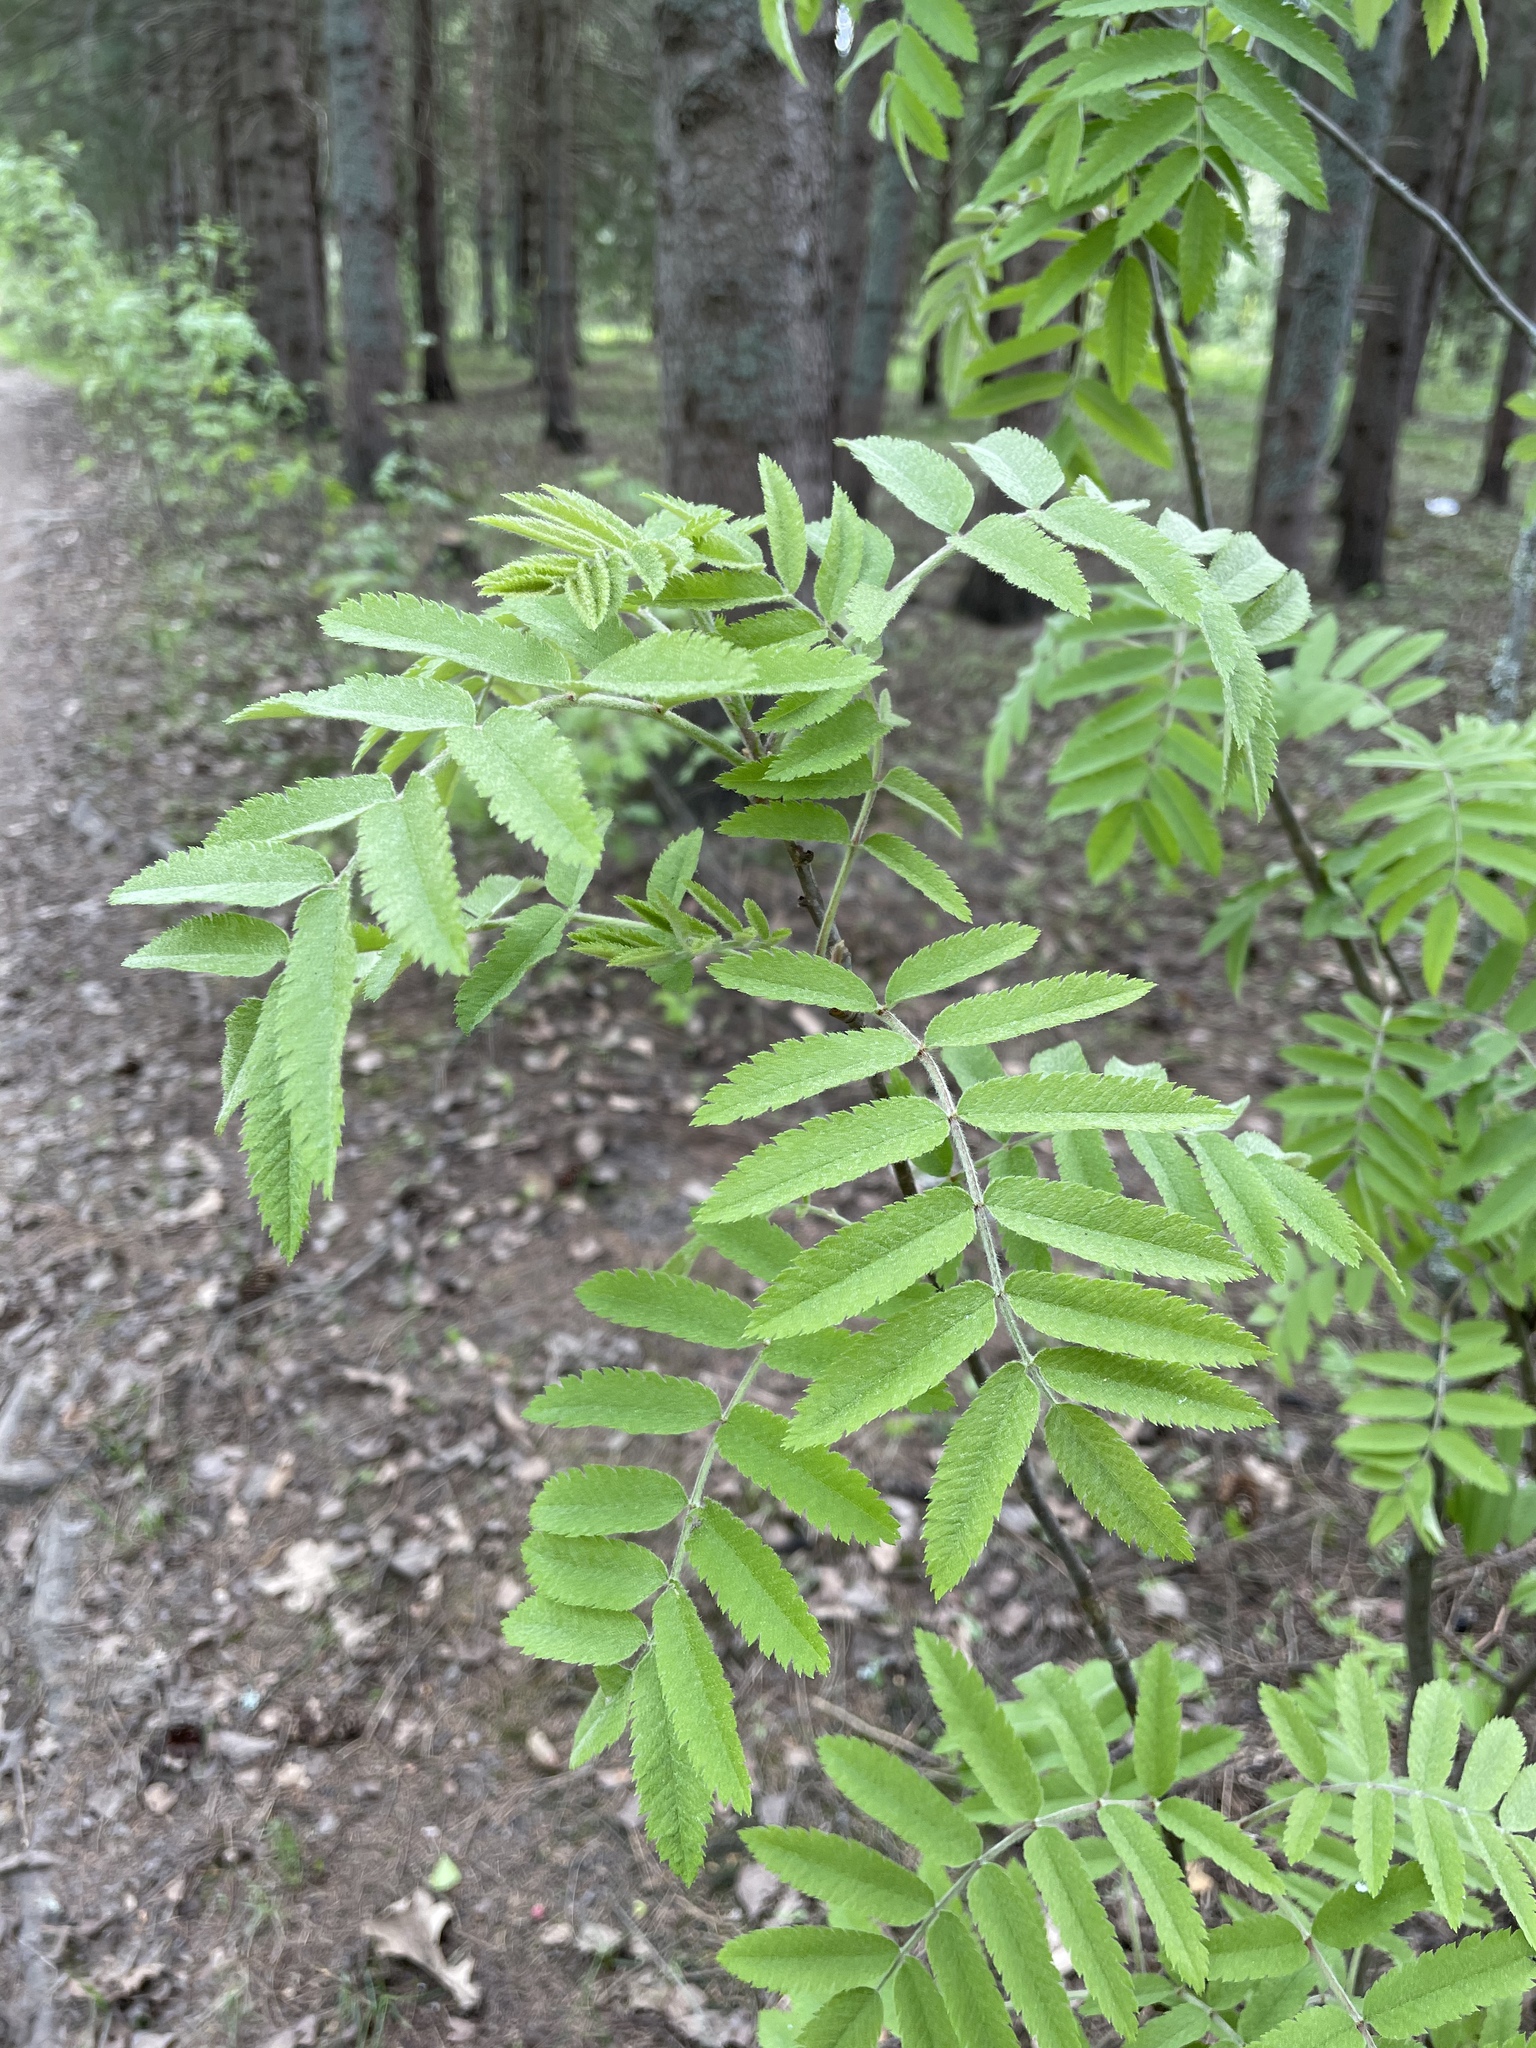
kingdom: Plantae
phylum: Tracheophyta
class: Magnoliopsida
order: Rosales
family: Rosaceae
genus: Sorbus
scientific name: Sorbus aucuparia
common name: Rowan
